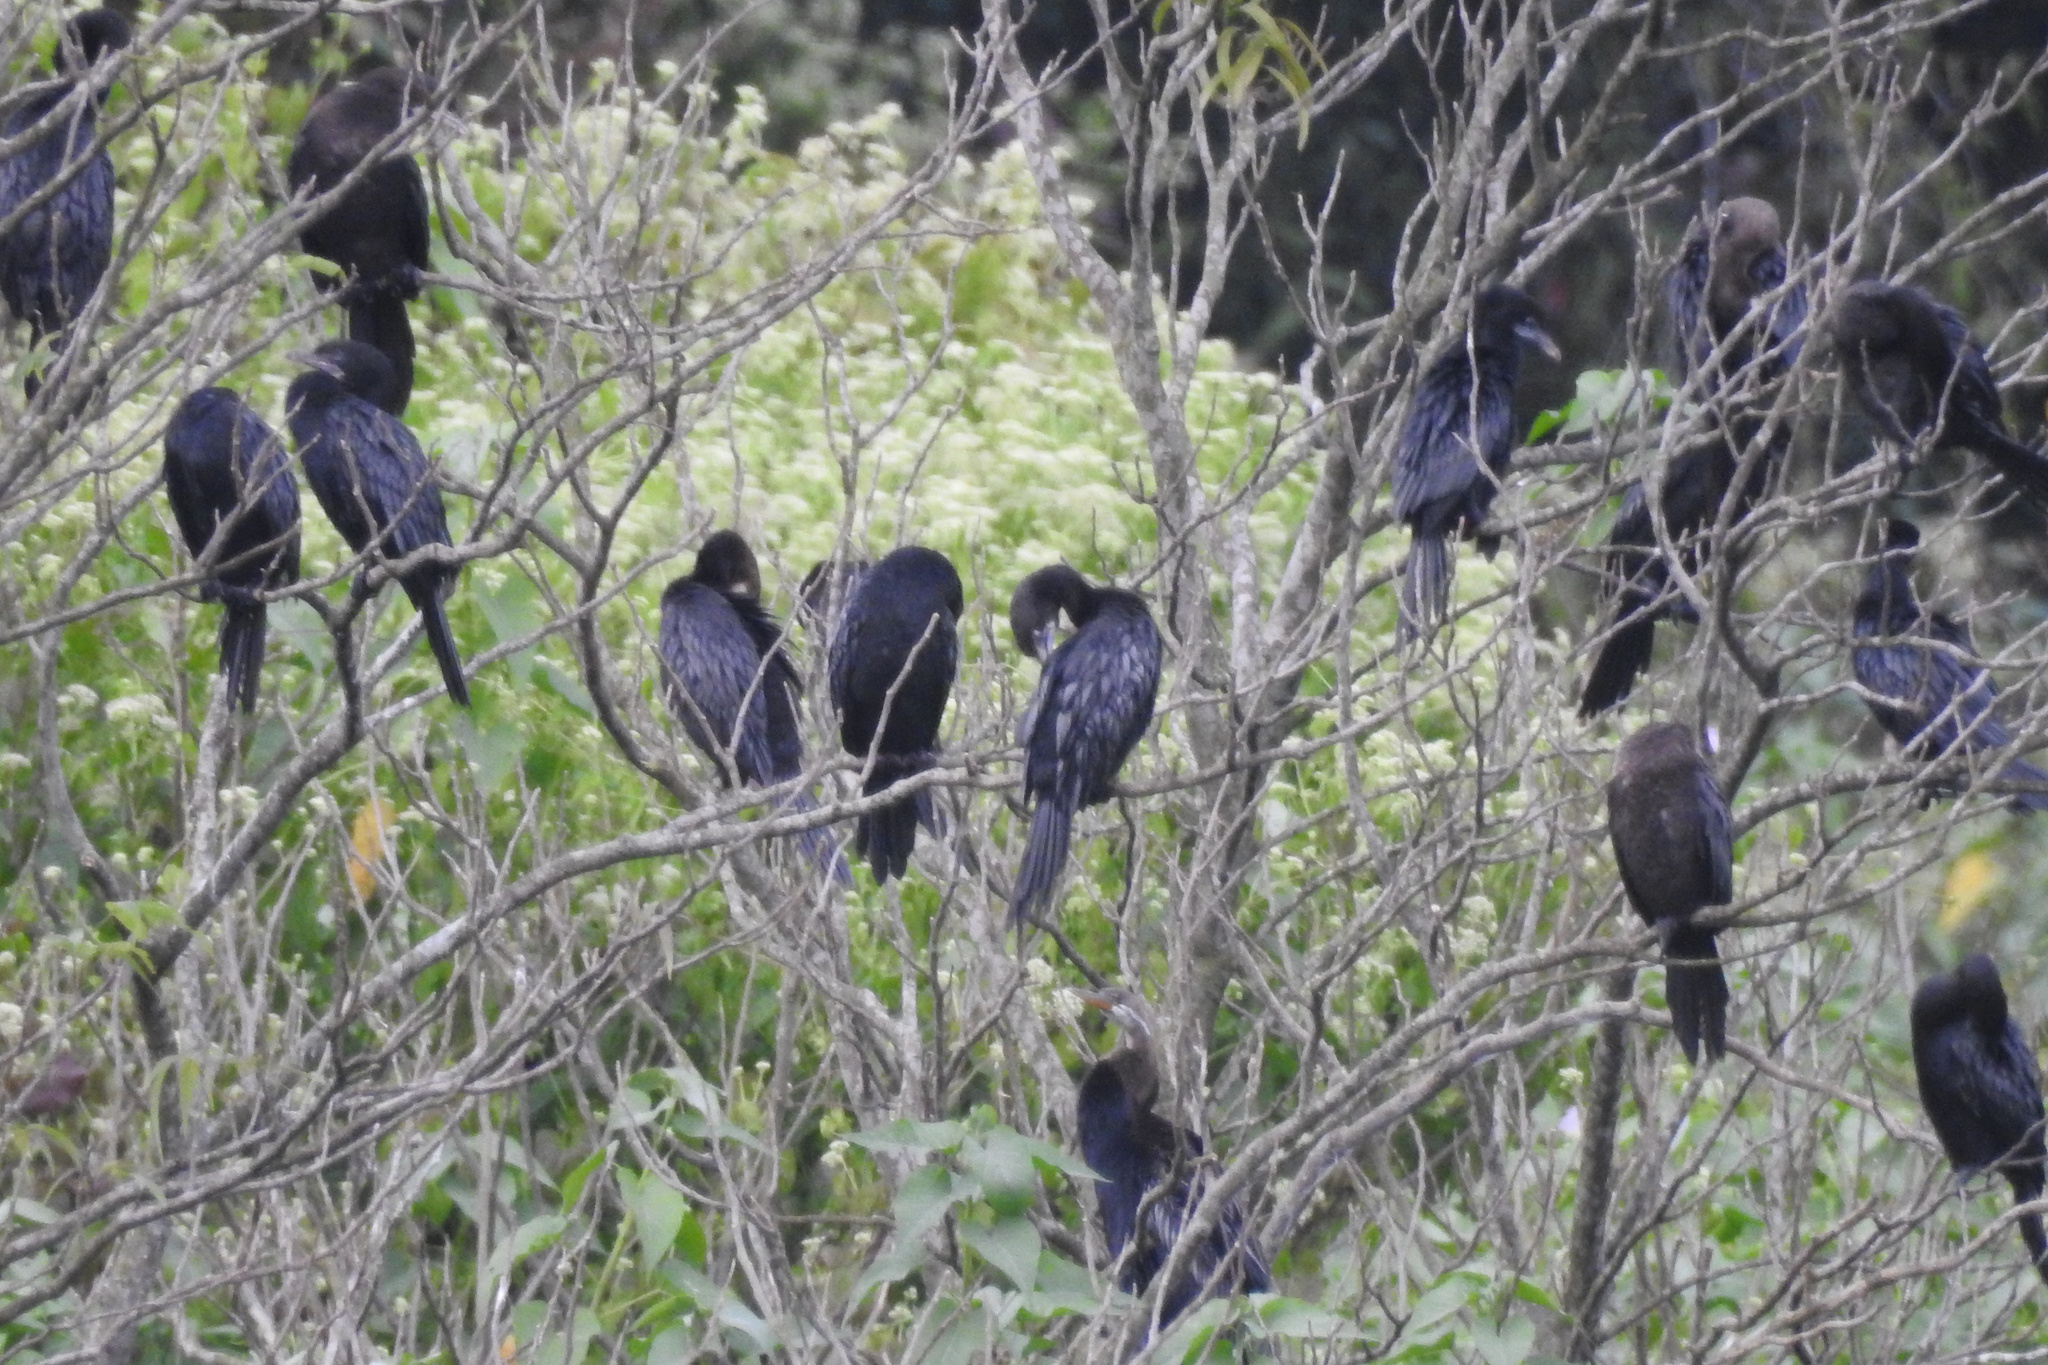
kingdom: Animalia
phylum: Chordata
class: Aves
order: Suliformes
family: Phalacrocoracidae
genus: Microcarbo
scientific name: Microcarbo niger
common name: Little cormorant
